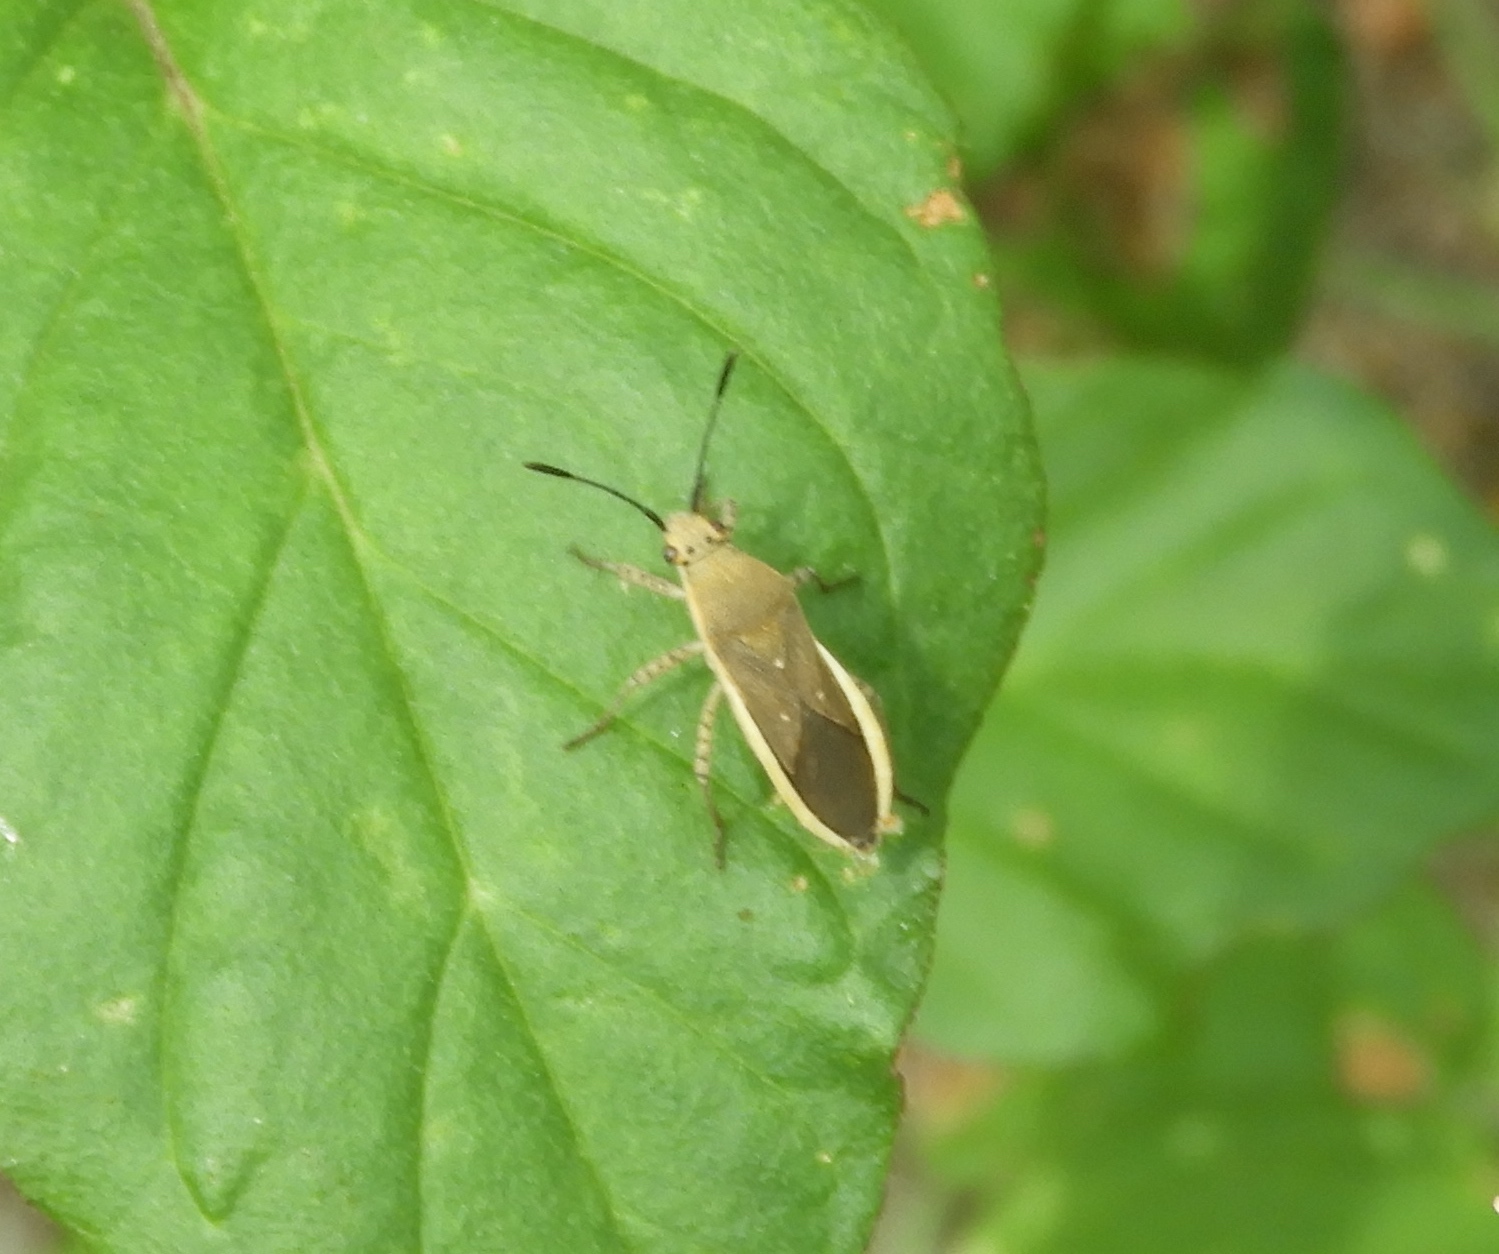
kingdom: Animalia
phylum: Arthropoda
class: Insecta
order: Hemiptera
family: Coreidae
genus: Catorhintha
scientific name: Catorhintha selector
